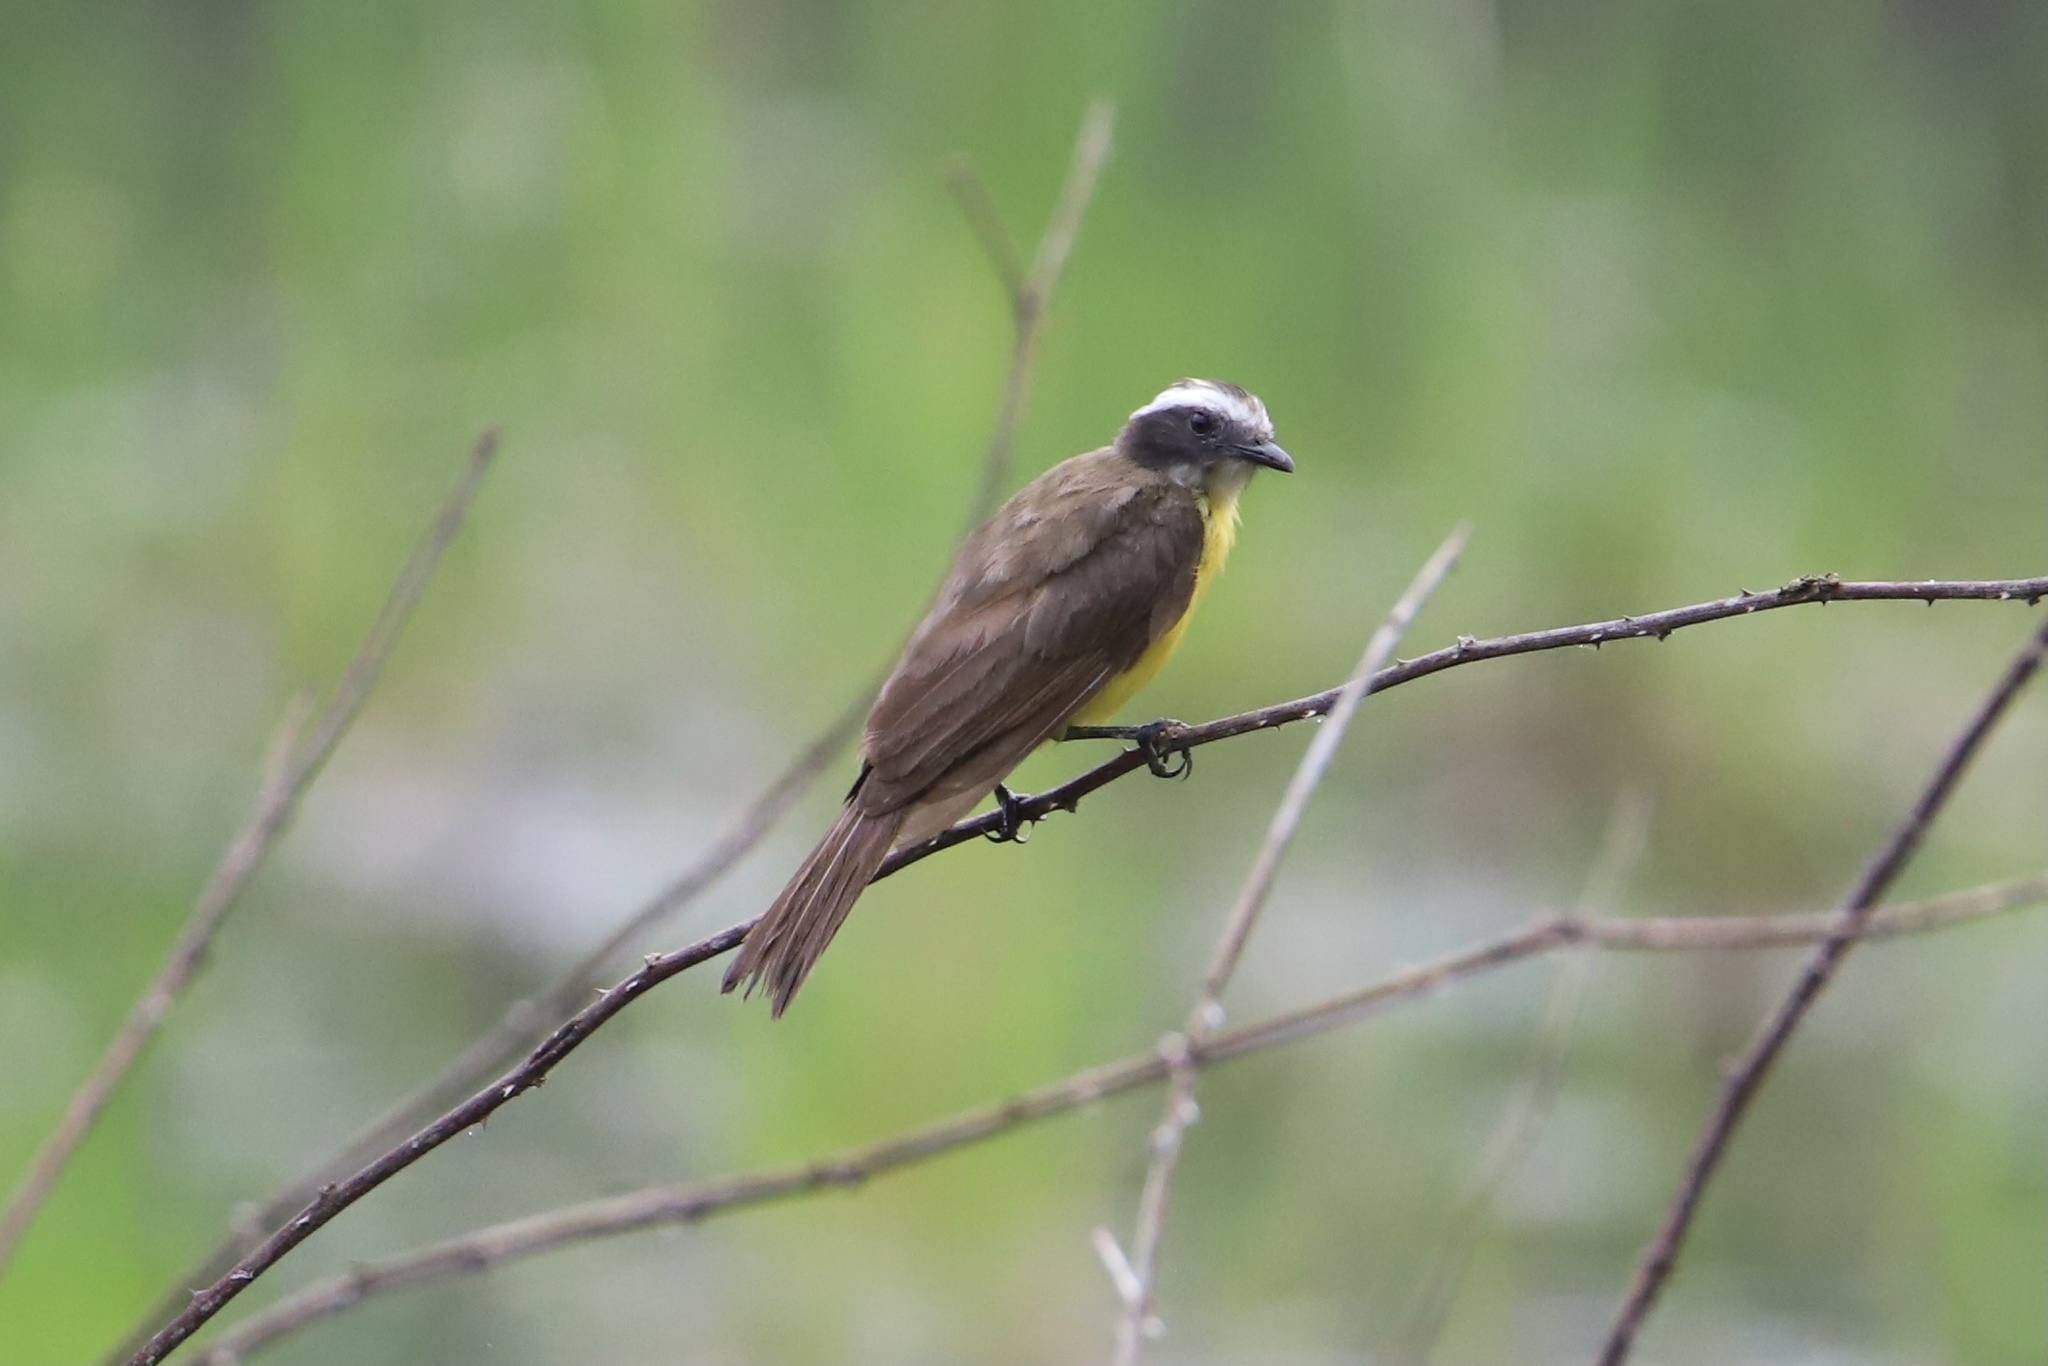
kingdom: Animalia
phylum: Chordata
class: Aves
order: Passeriformes
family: Tyrannidae
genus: Myiozetetes
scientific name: Myiozetetes similis
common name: Social flycatcher
